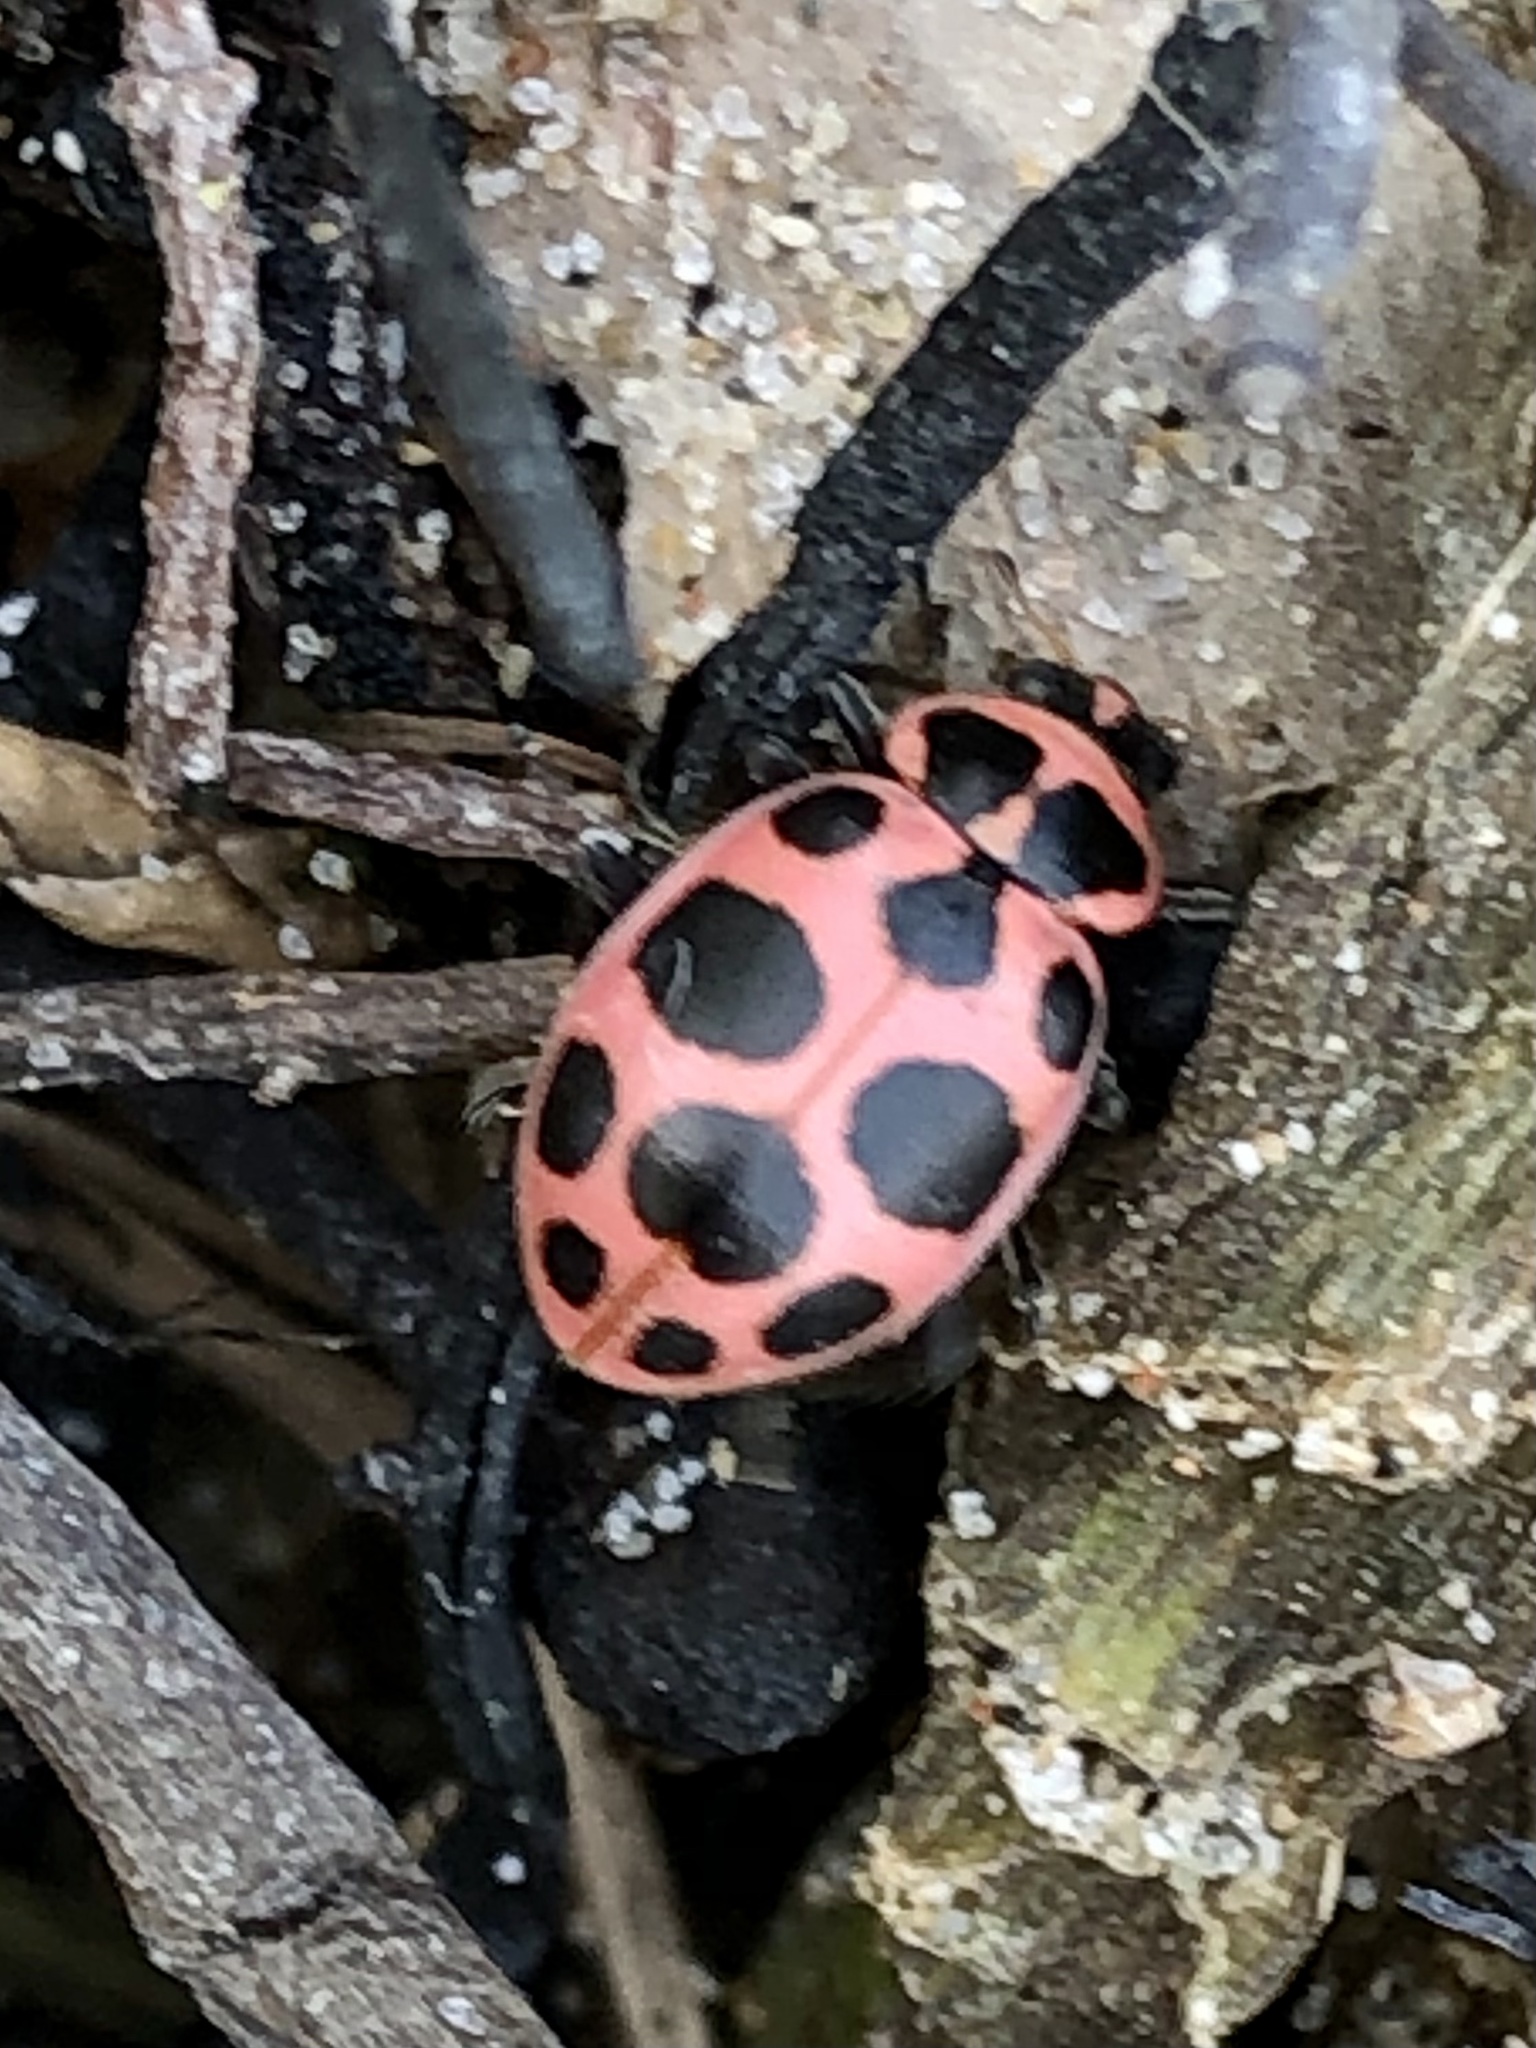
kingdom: Animalia
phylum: Arthropoda
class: Insecta
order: Coleoptera
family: Coccinellidae
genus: Coleomegilla
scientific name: Coleomegilla maculata
